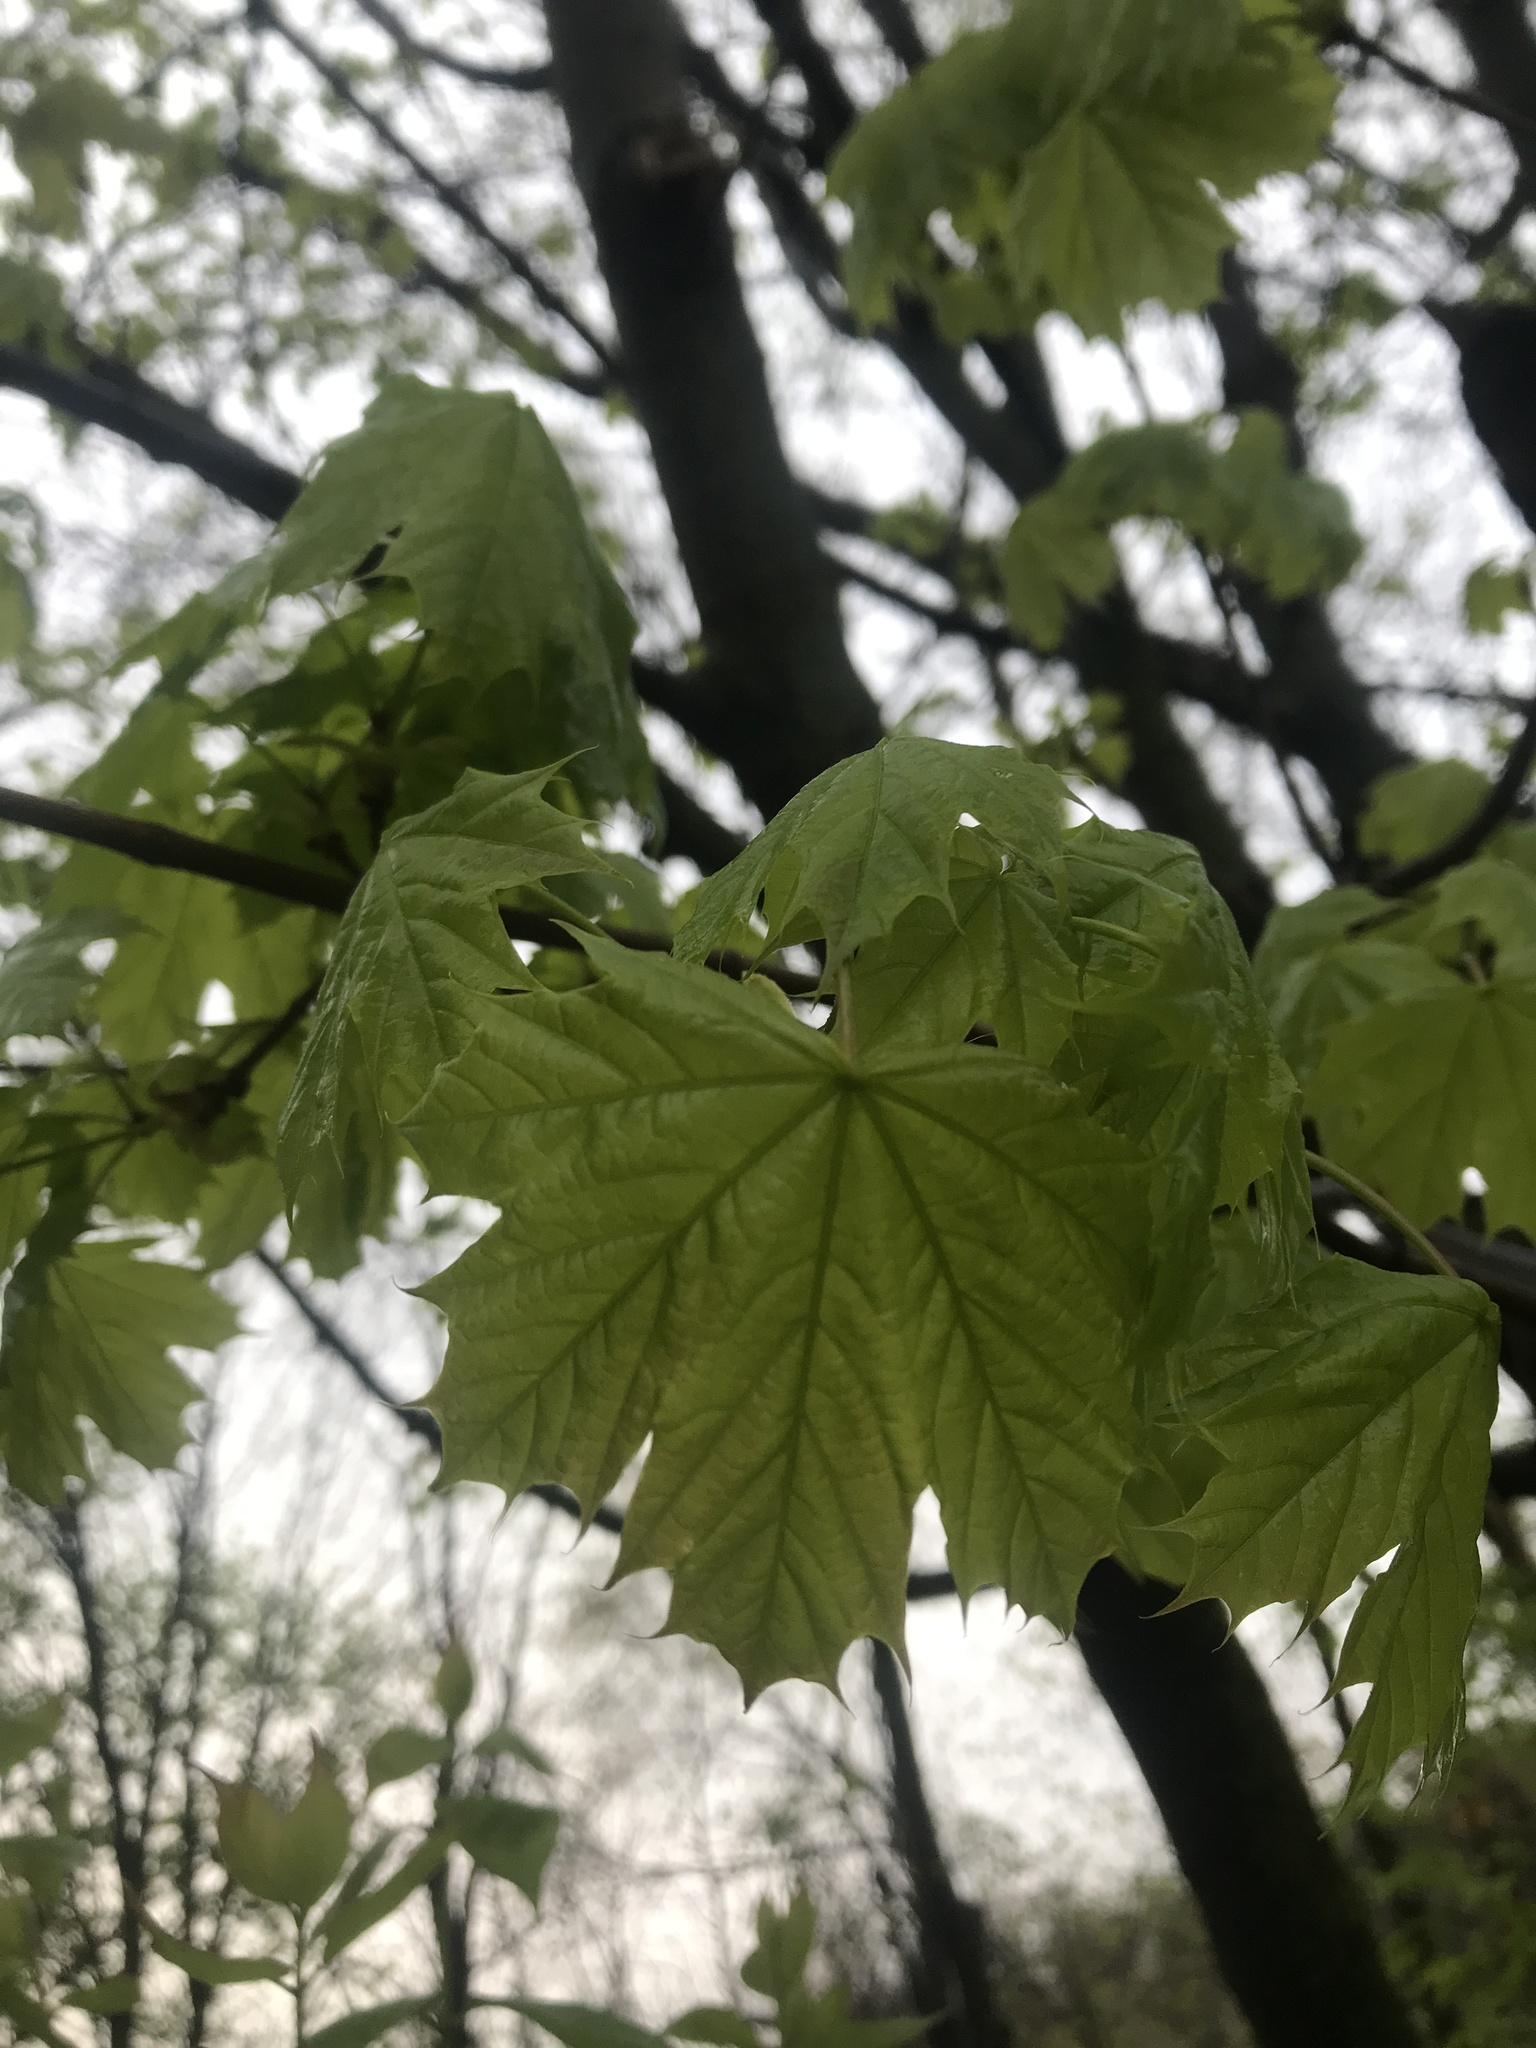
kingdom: Plantae
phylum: Tracheophyta
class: Magnoliopsida
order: Sapindales
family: Sapindaceae
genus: Acer
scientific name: Acer platanoides
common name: Norway maple
